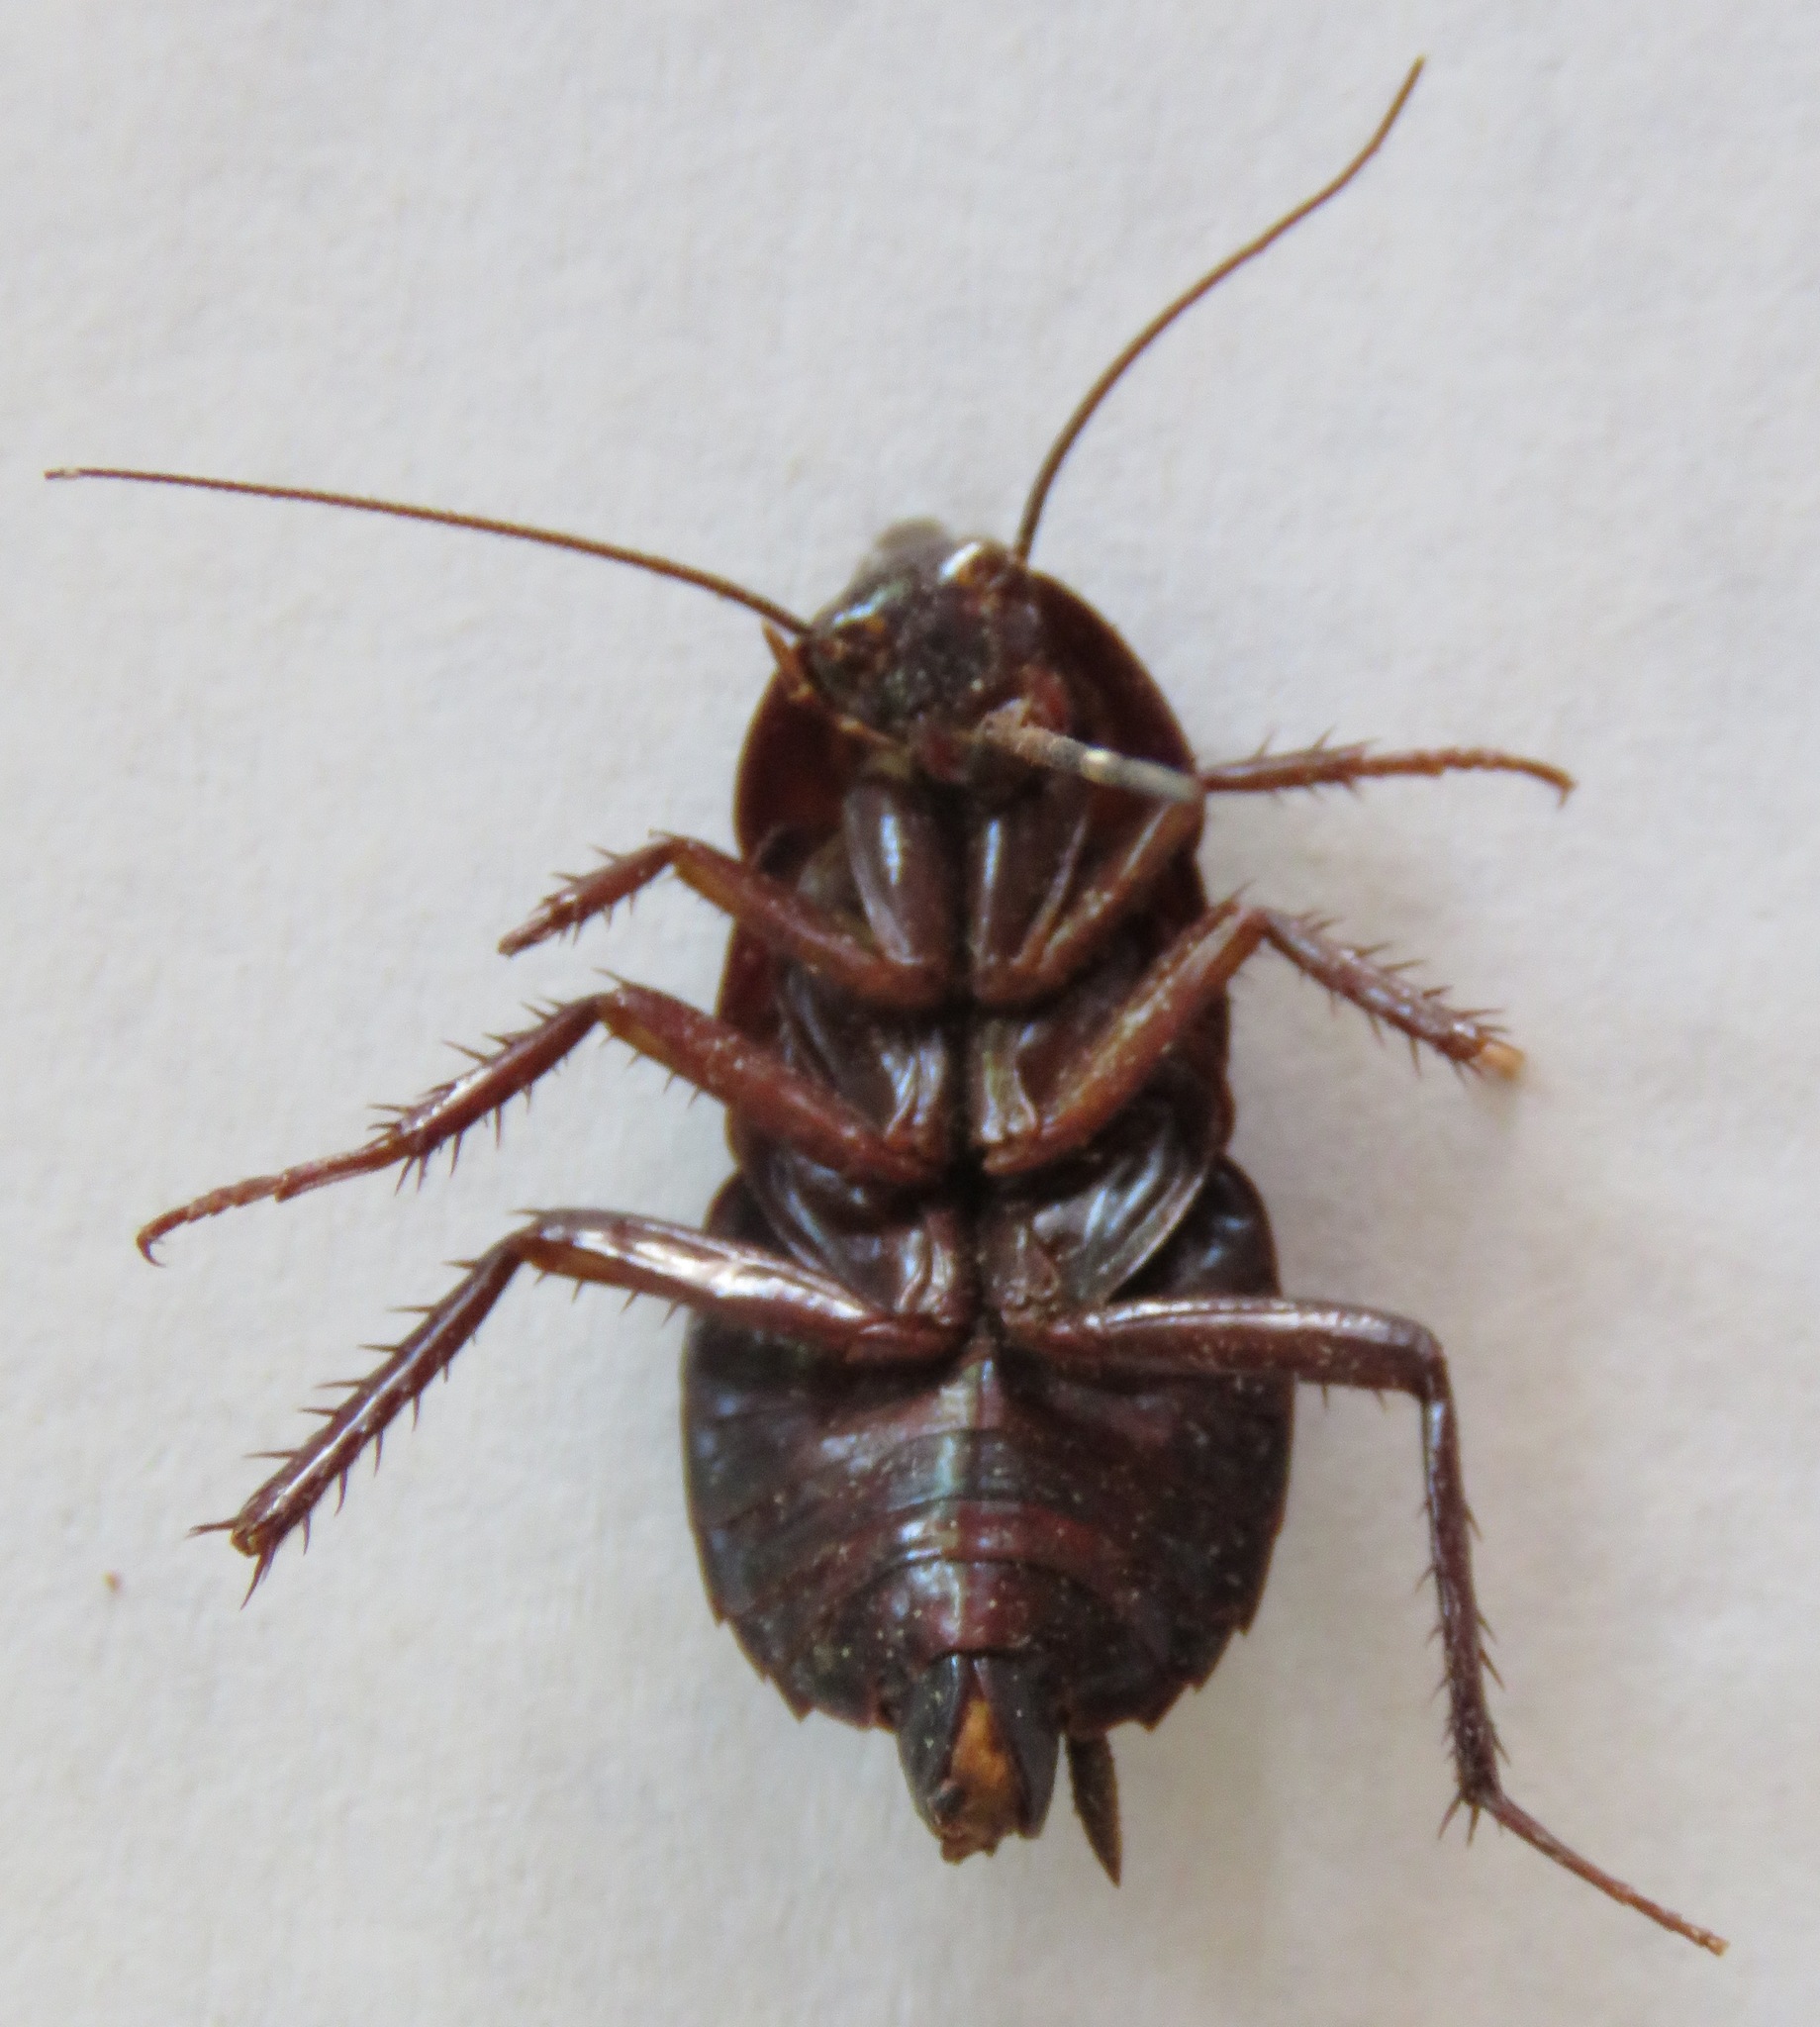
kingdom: Animalia
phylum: Arthropoda
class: Insecta
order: Blattodea
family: Blattidae
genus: Blatta
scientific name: Blatta orientalis
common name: Oriental cockroach
